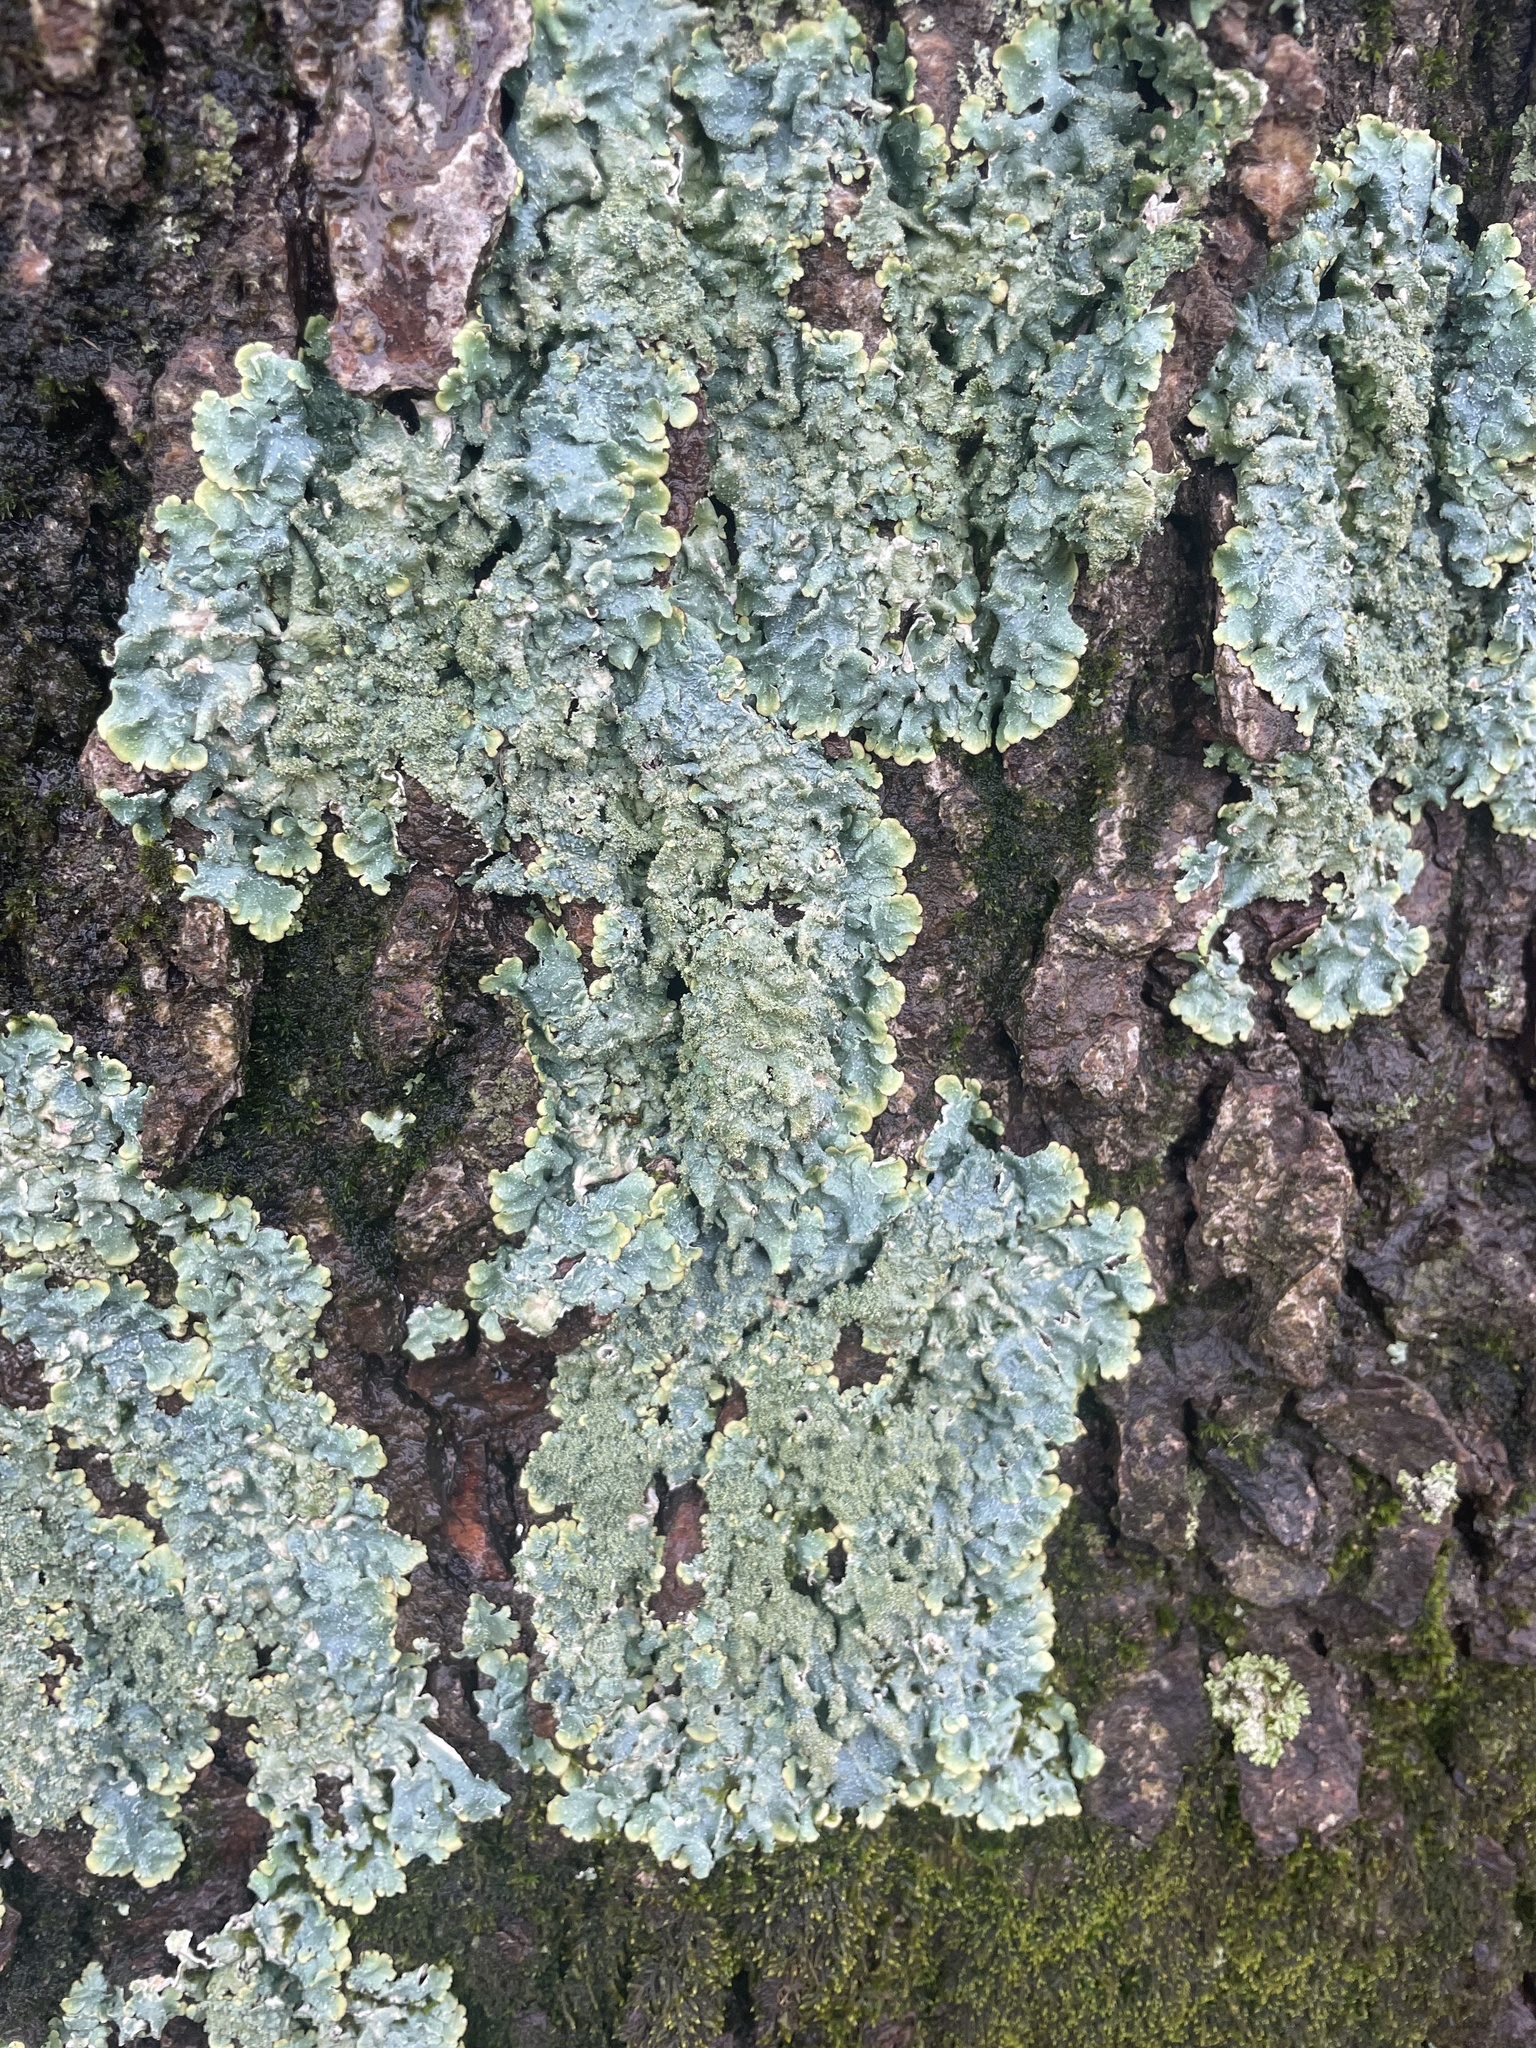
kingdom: Fungi
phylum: Ascomycota
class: Lecanoromycetes
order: Lecanorales
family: Parmeliaceae
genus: Punctelia
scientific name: Punctelia rudecta
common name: Rough speckled shield lichen
